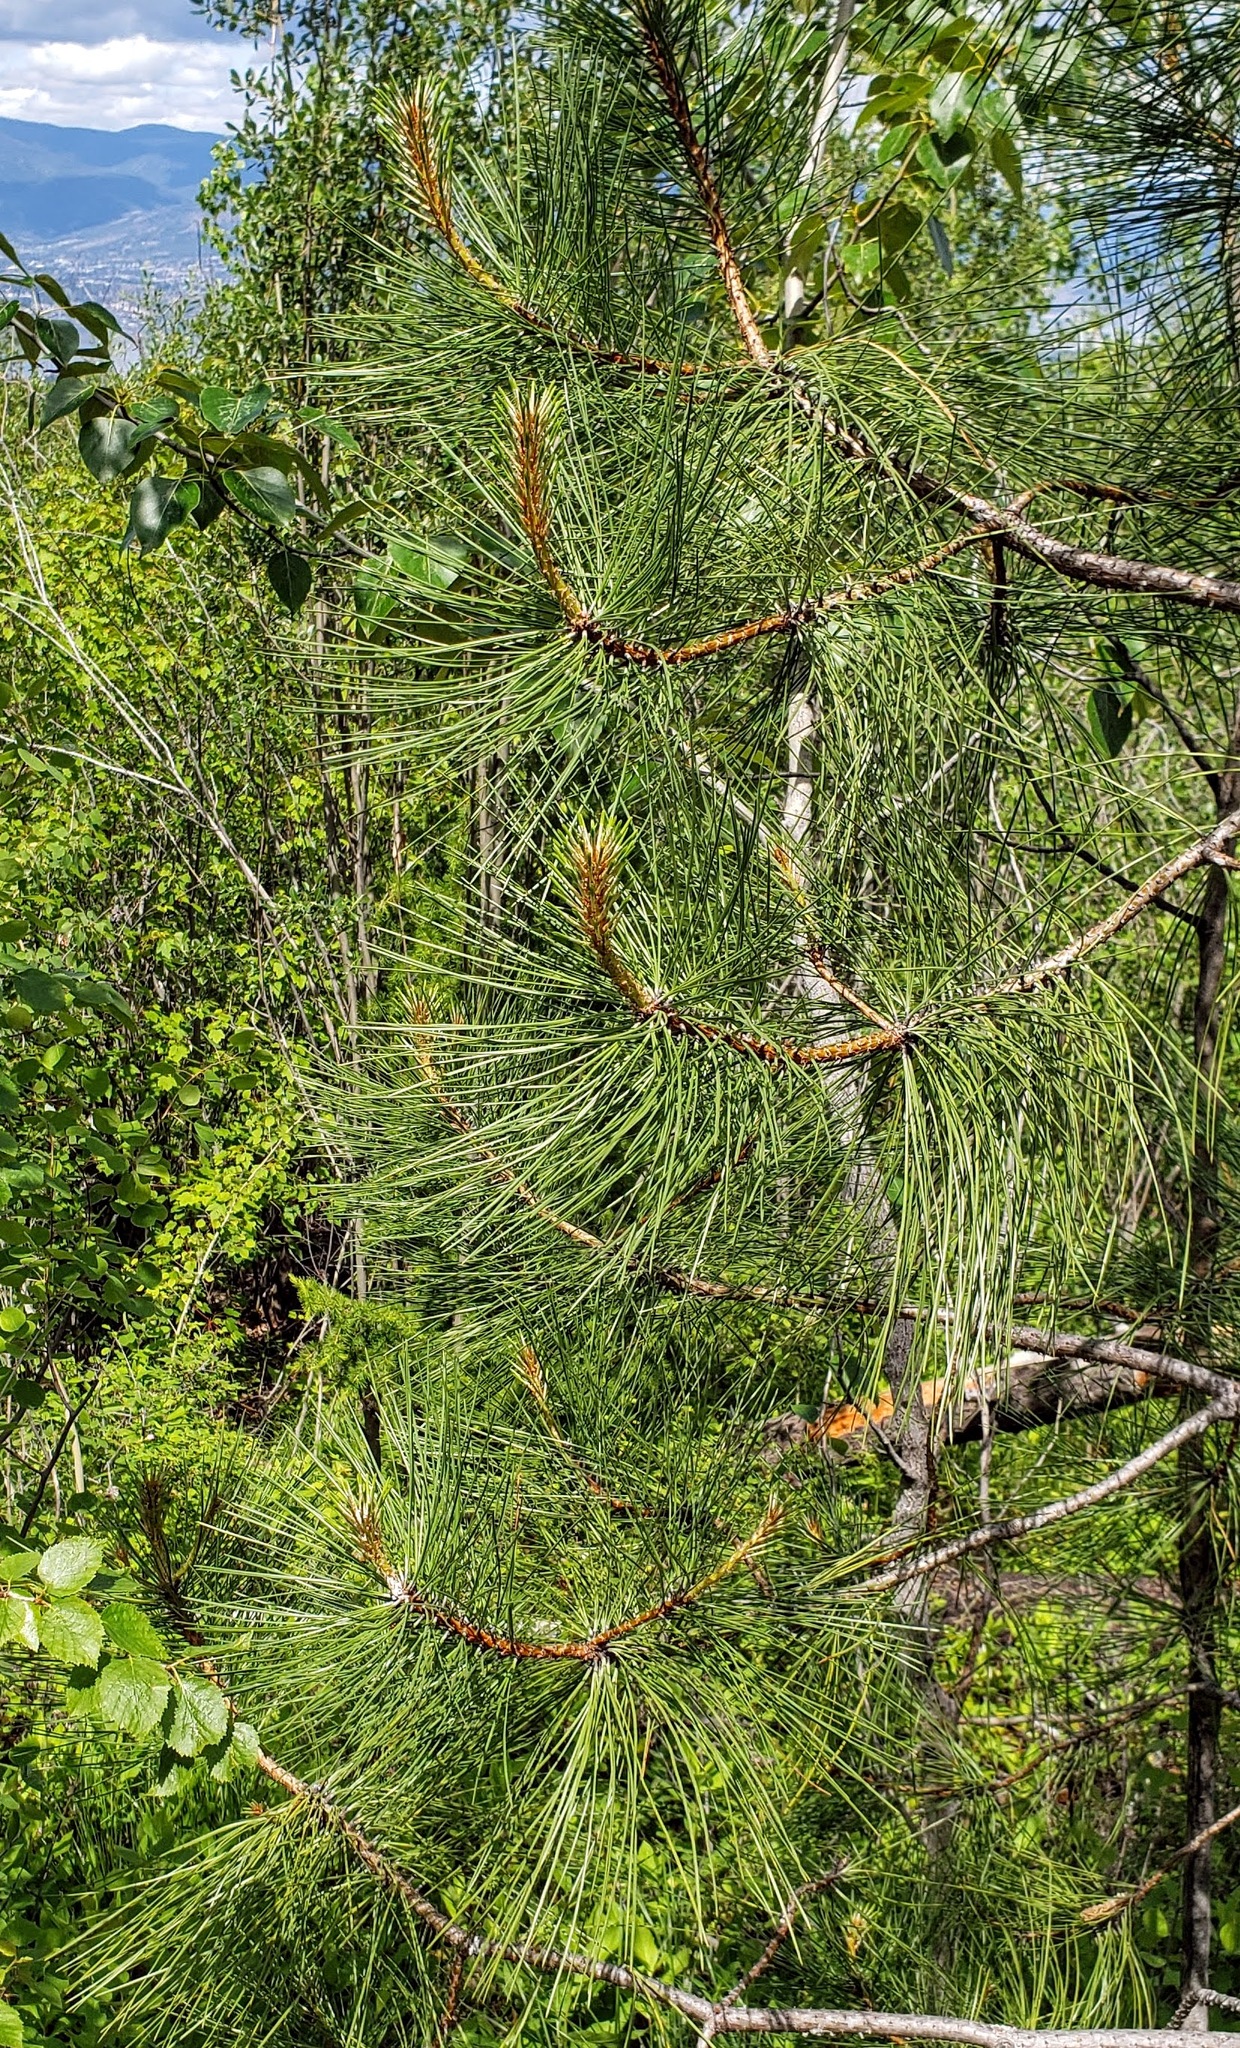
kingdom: Plantae
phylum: Tracheophyta
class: Pinopsida
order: Pinales
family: Pinaceae
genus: Pinus
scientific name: Pinus ponderosa
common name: Western yellow-pine
